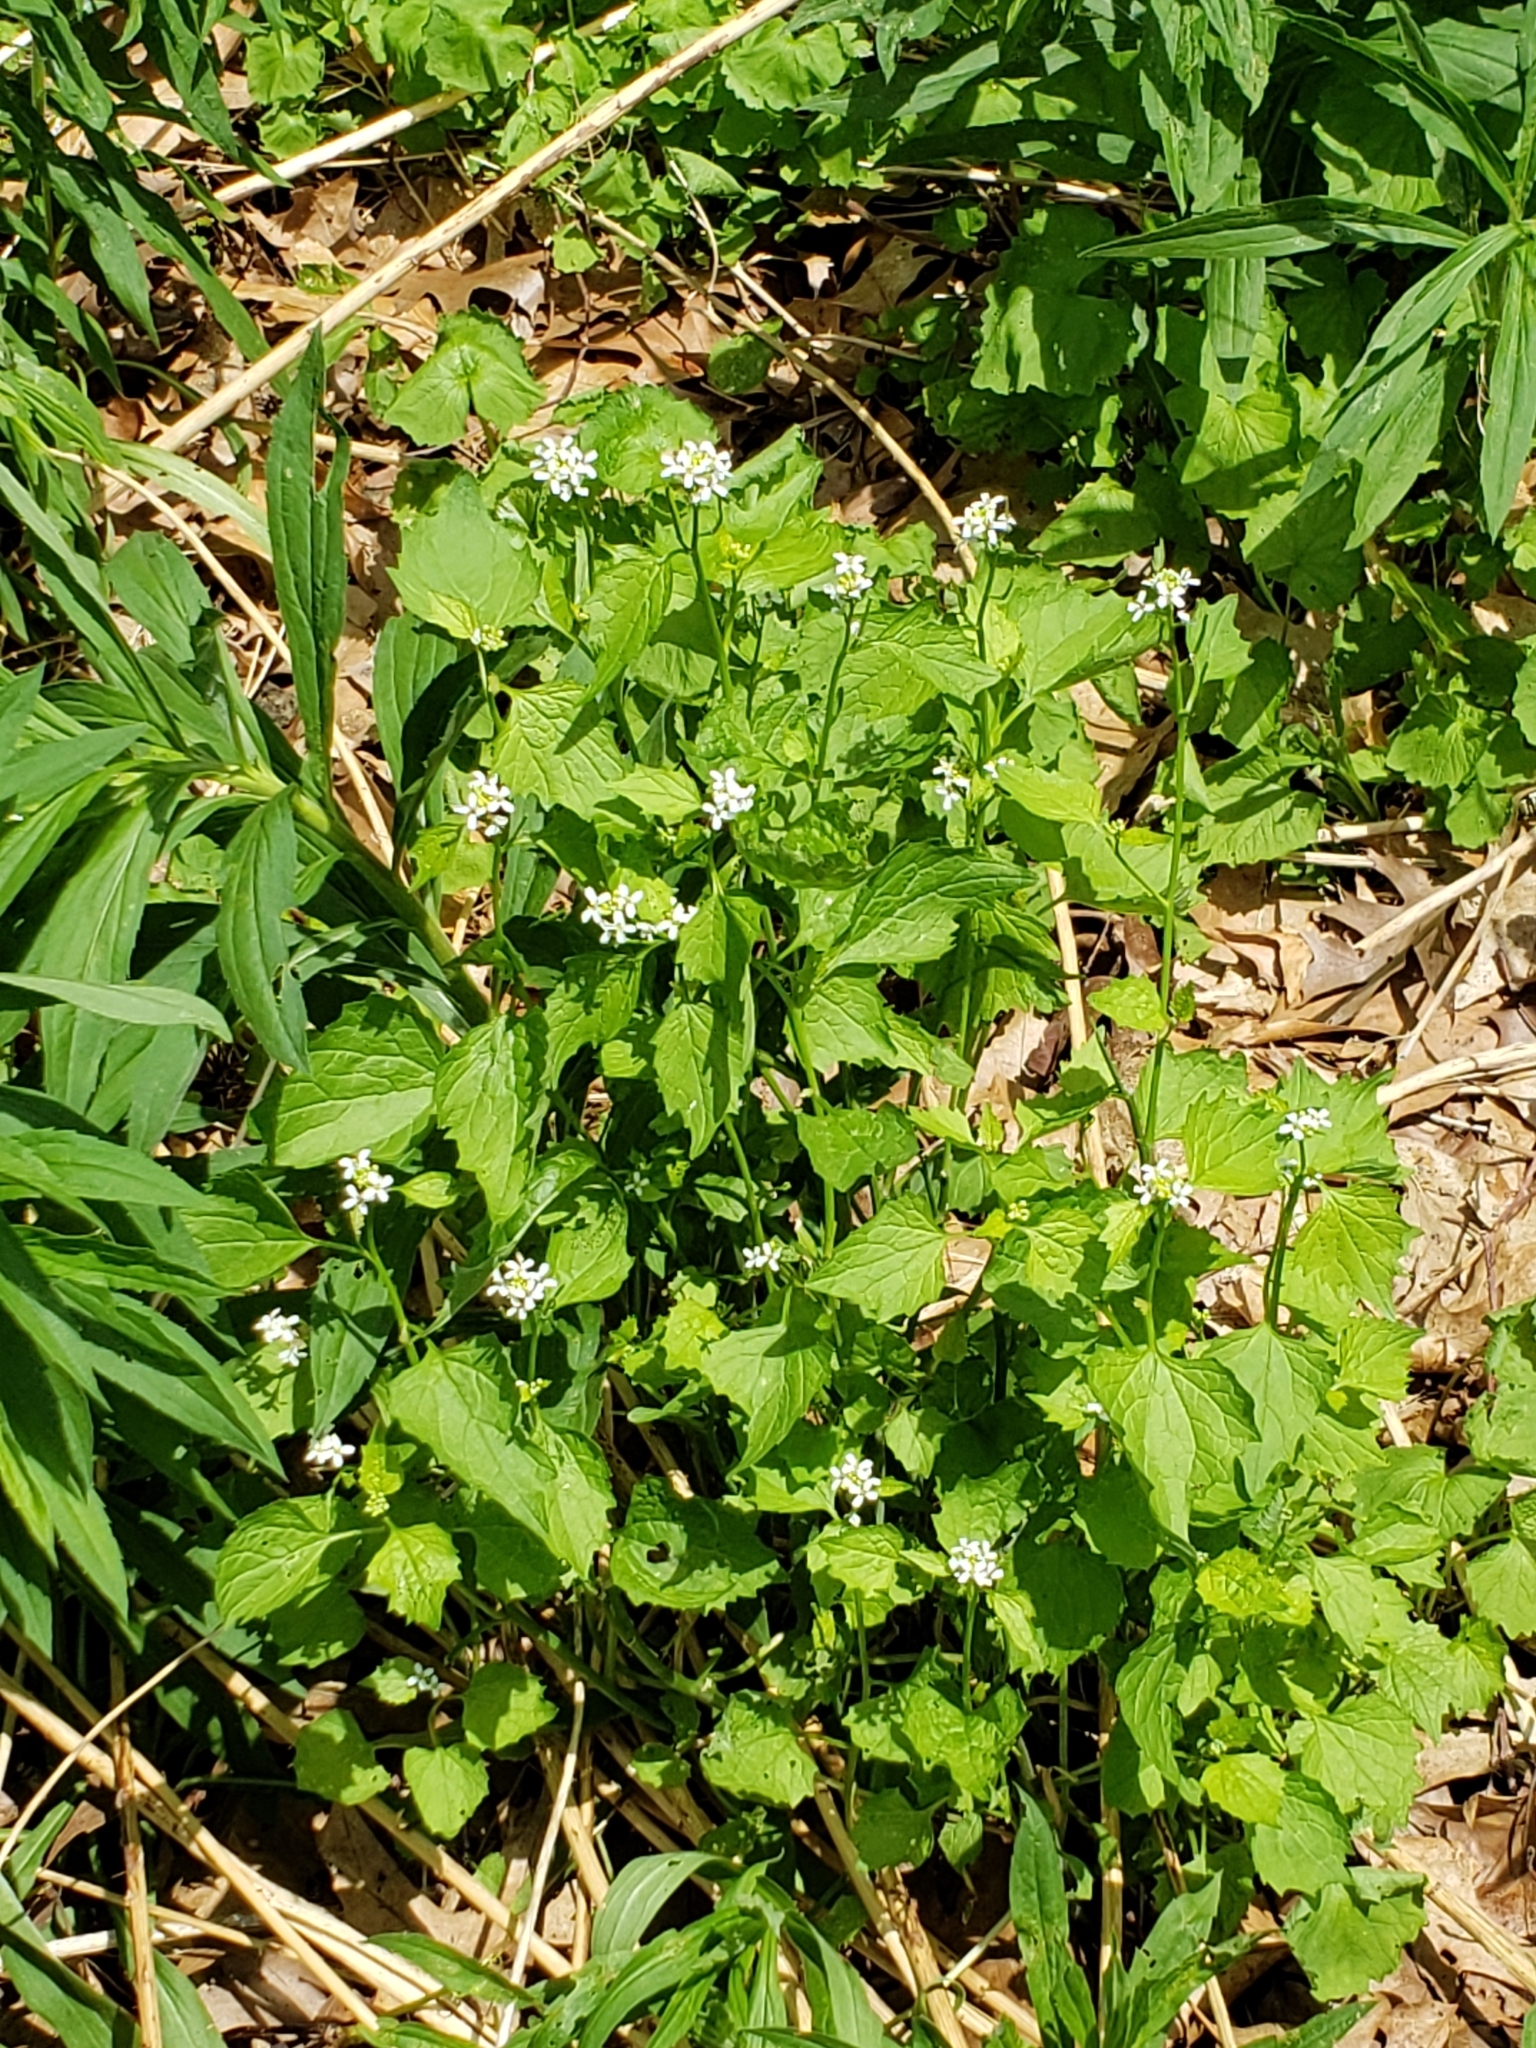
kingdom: Plantae
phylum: Tracheophyta
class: Magnoliopsida
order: Brassicales
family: Brassicaceae
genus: Alliaria
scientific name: Alliaria petiolata
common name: Garlic mustard
